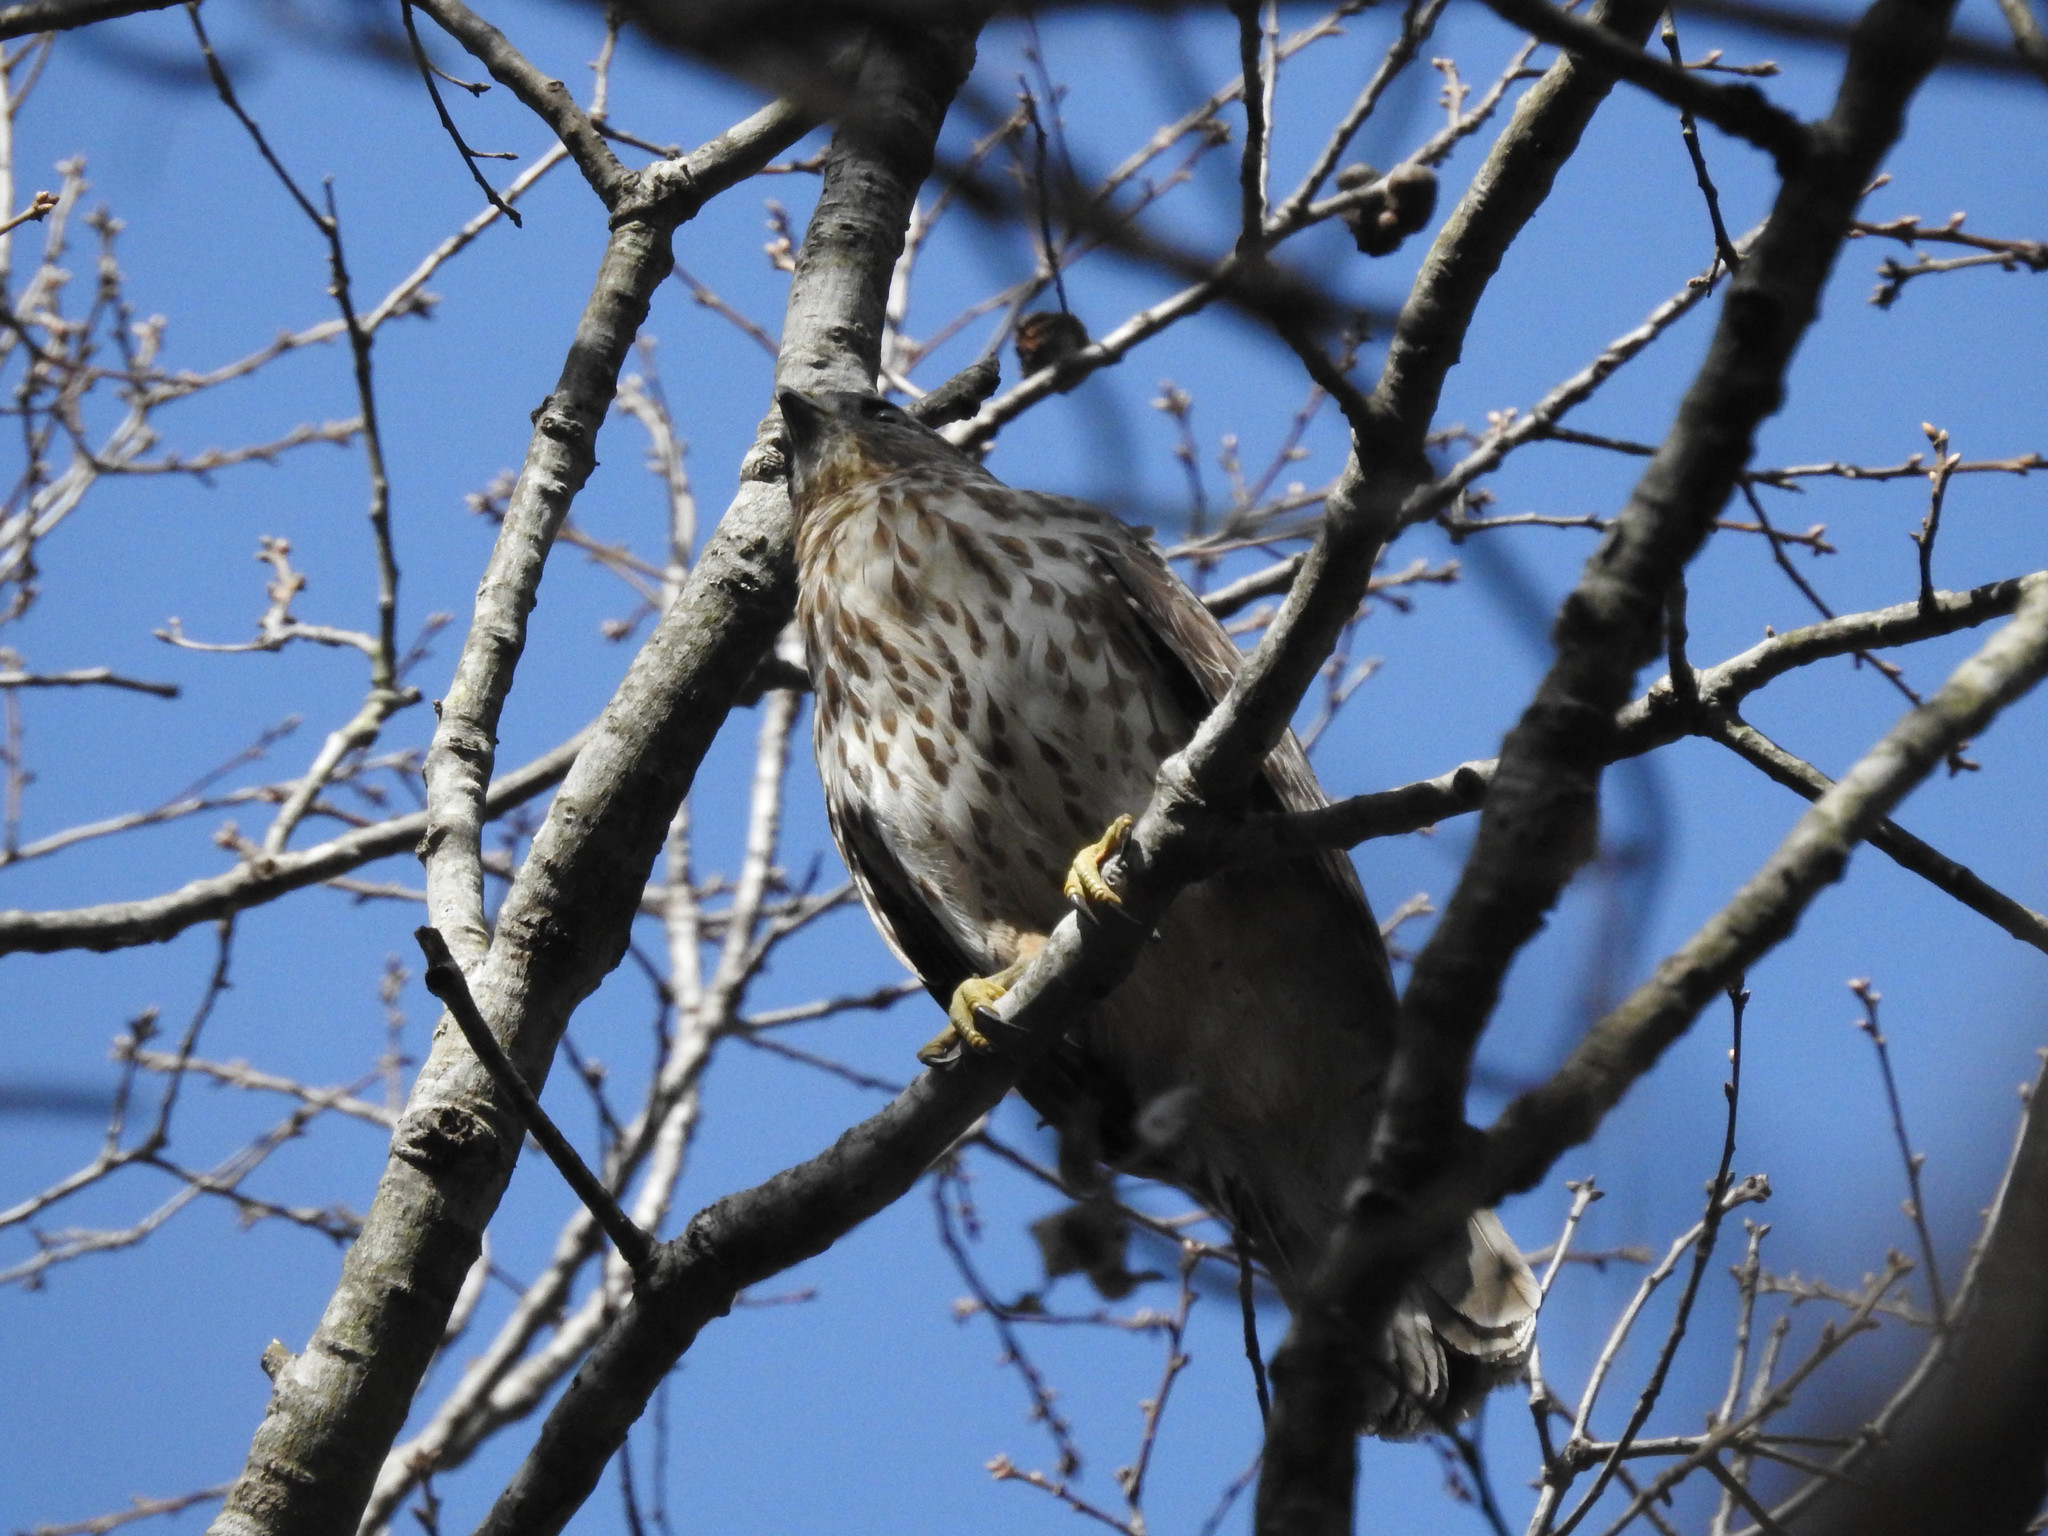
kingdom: Animalia
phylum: Chordata
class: Aves
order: Accipitriformes
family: Accipitridae
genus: Buteo
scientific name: Buteo lineatus
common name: Red-shouldered hawk
